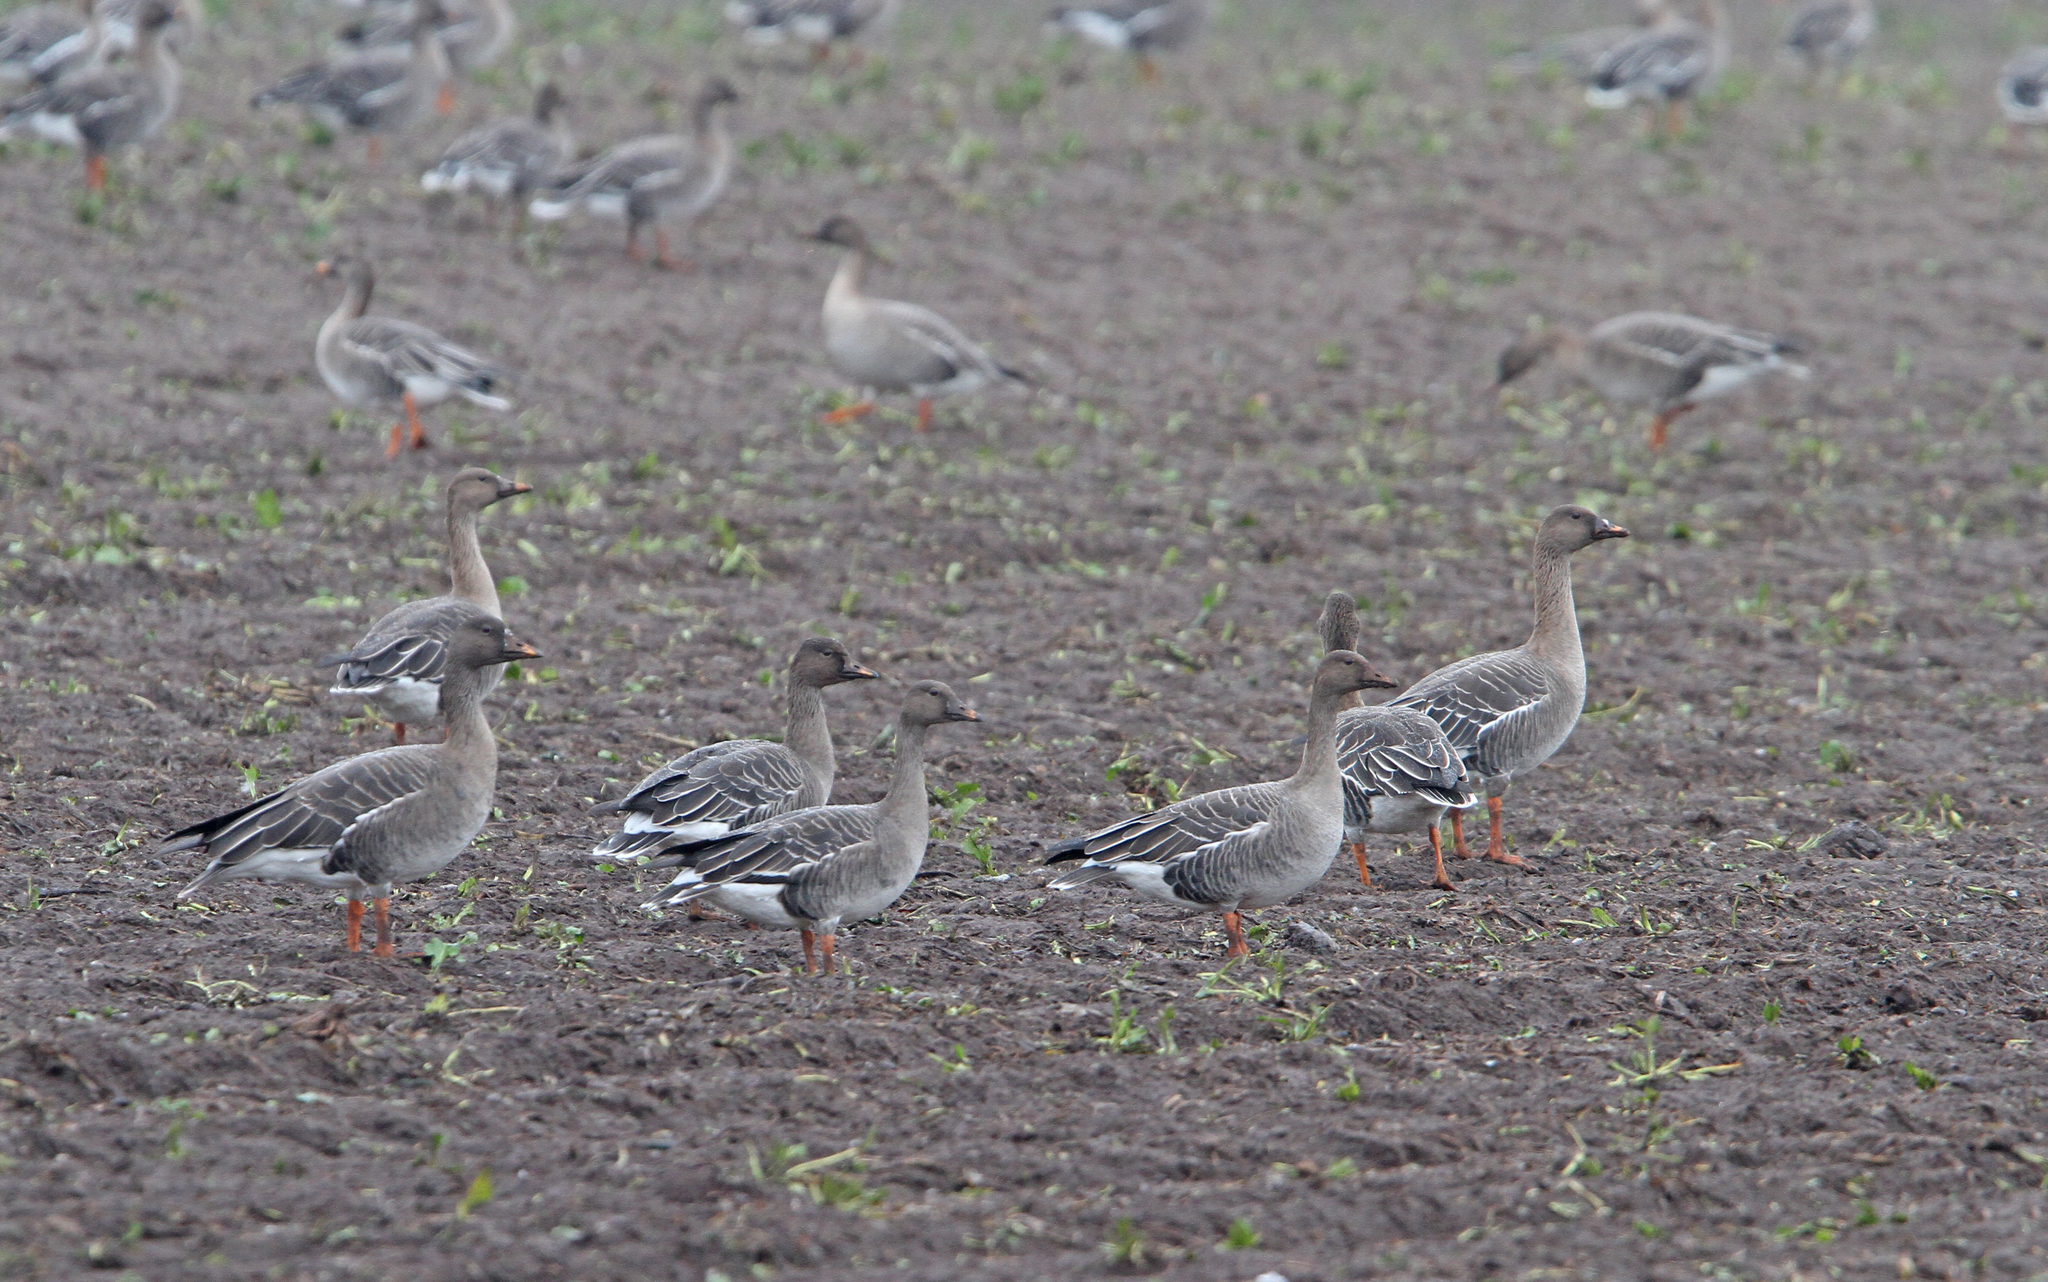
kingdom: Animalia
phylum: Chordata
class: Aves
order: Anseriformes
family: Anatidae
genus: Anser
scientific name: Anser serrirostris
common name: Tundra bean goose
